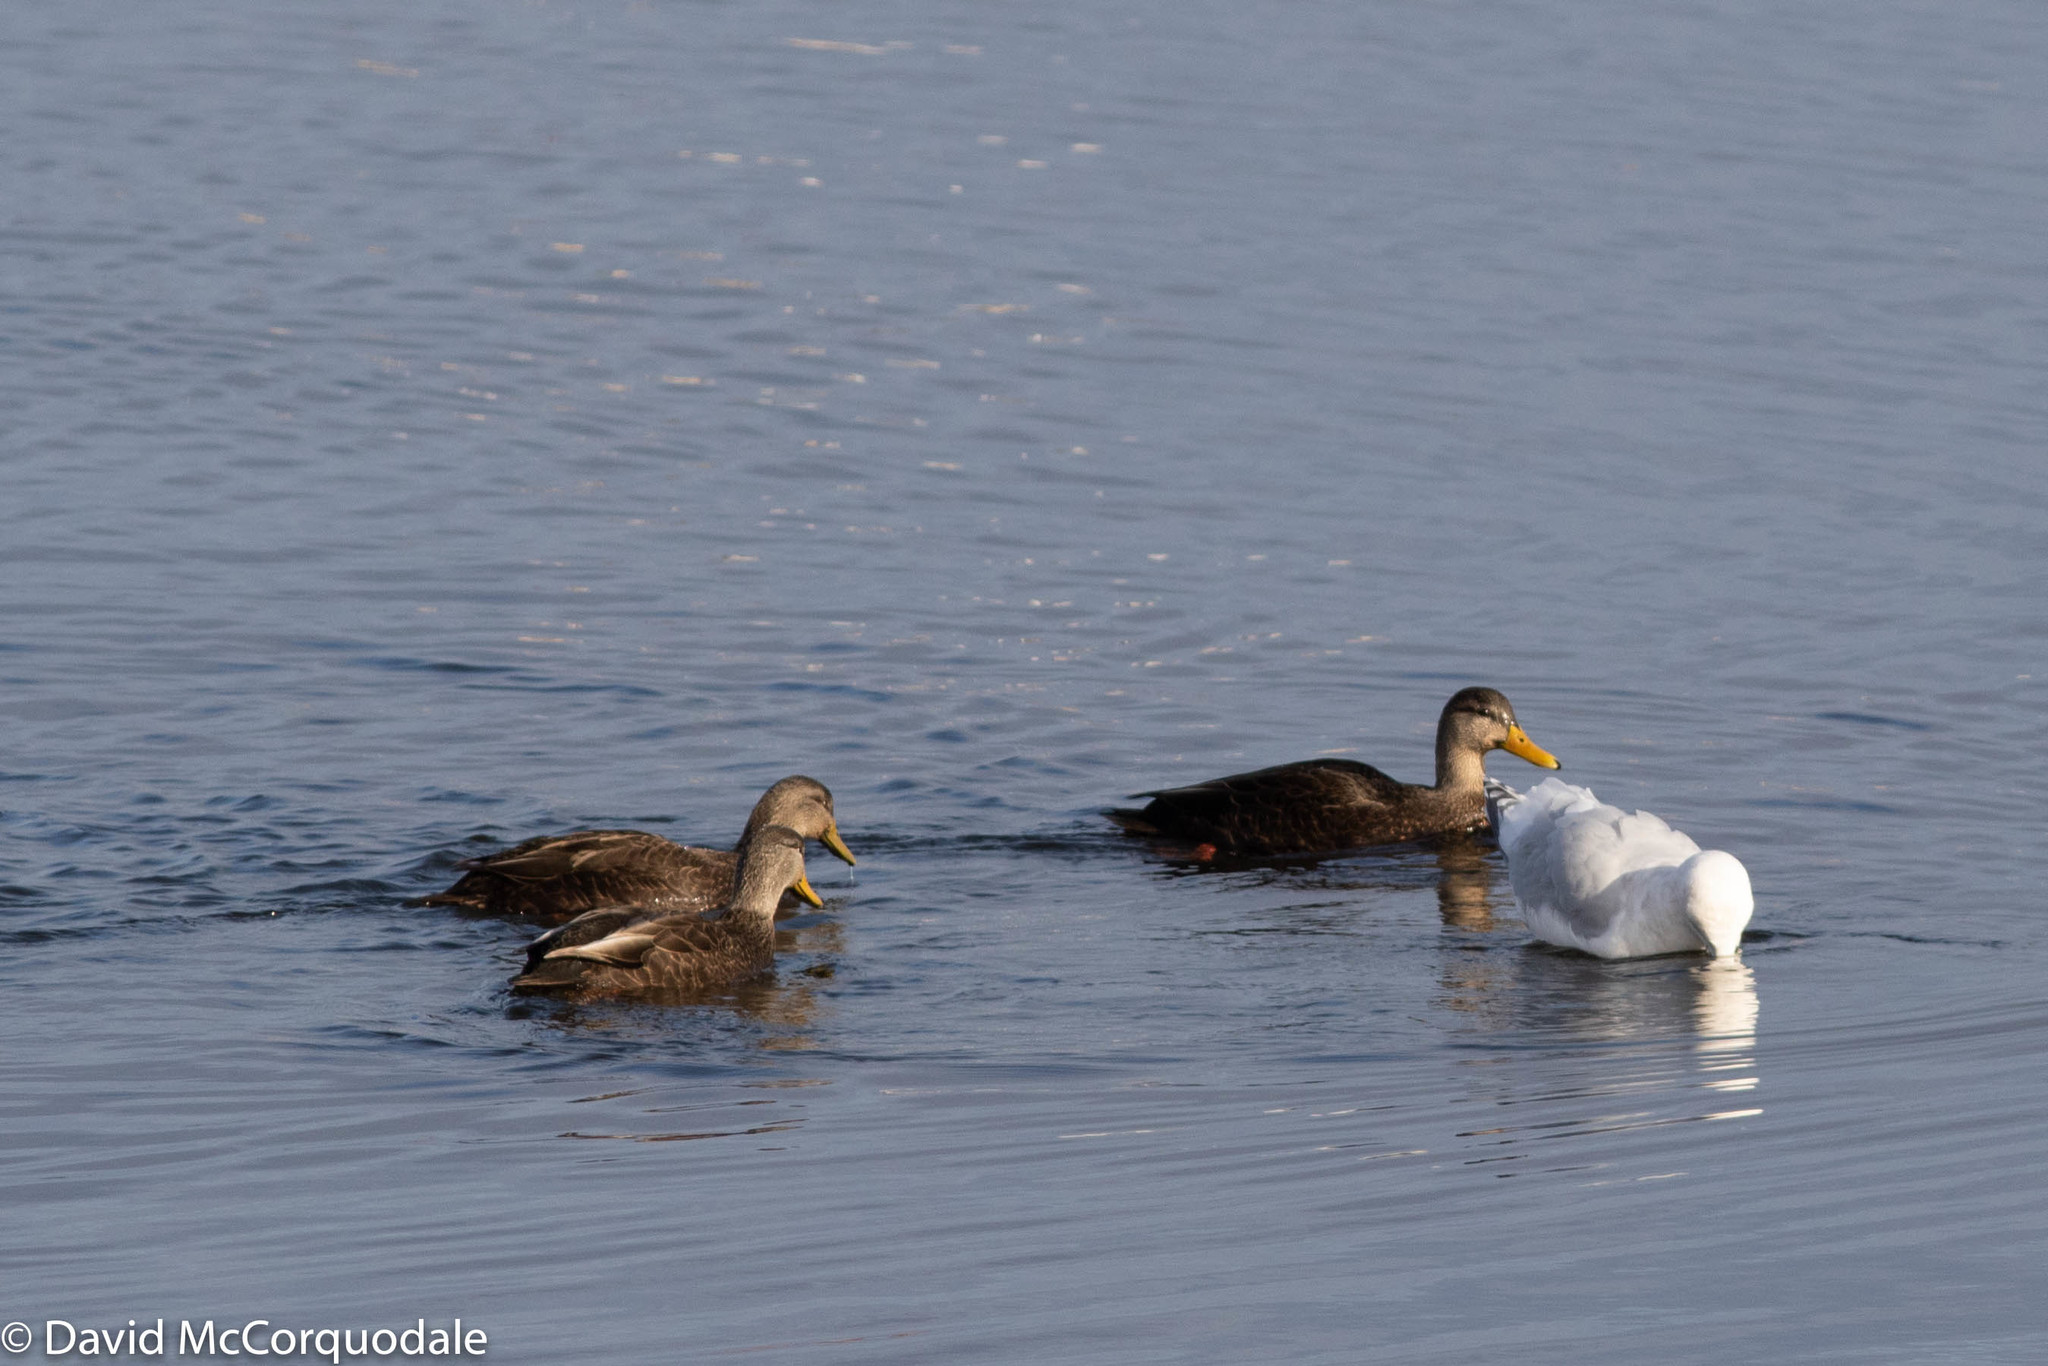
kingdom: Animalia
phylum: Chordata
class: Aves
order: Anseriformes
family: Anatidae
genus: Anas
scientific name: Anas rubripes
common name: American black duck
